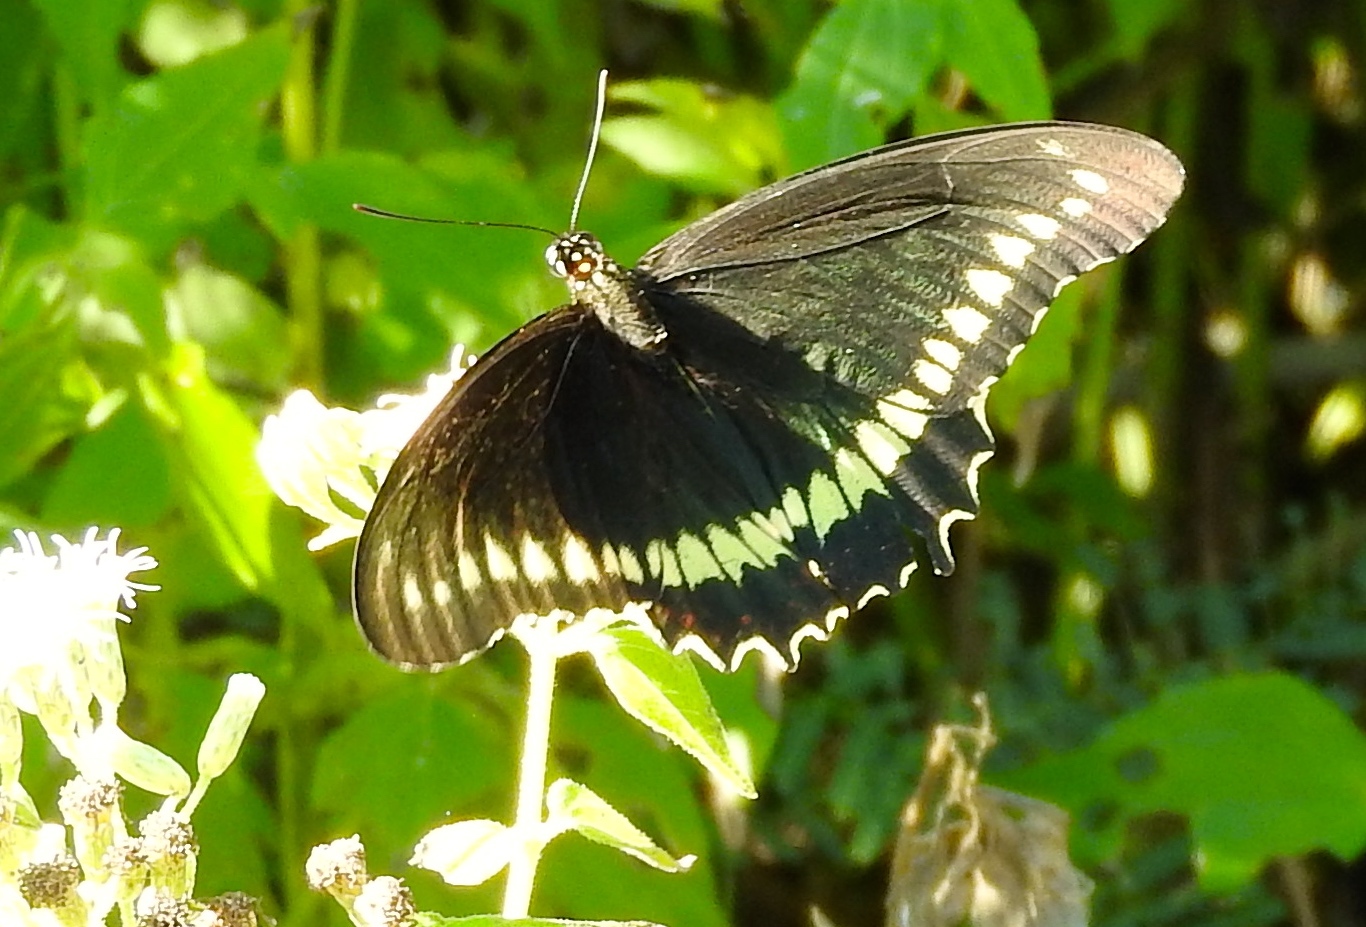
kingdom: Animalia
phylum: Arthropoda
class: Insecta
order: Lepidoptera
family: Papilionidae
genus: Battus
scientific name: Battus polydamas
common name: Polydamas swallowtail
